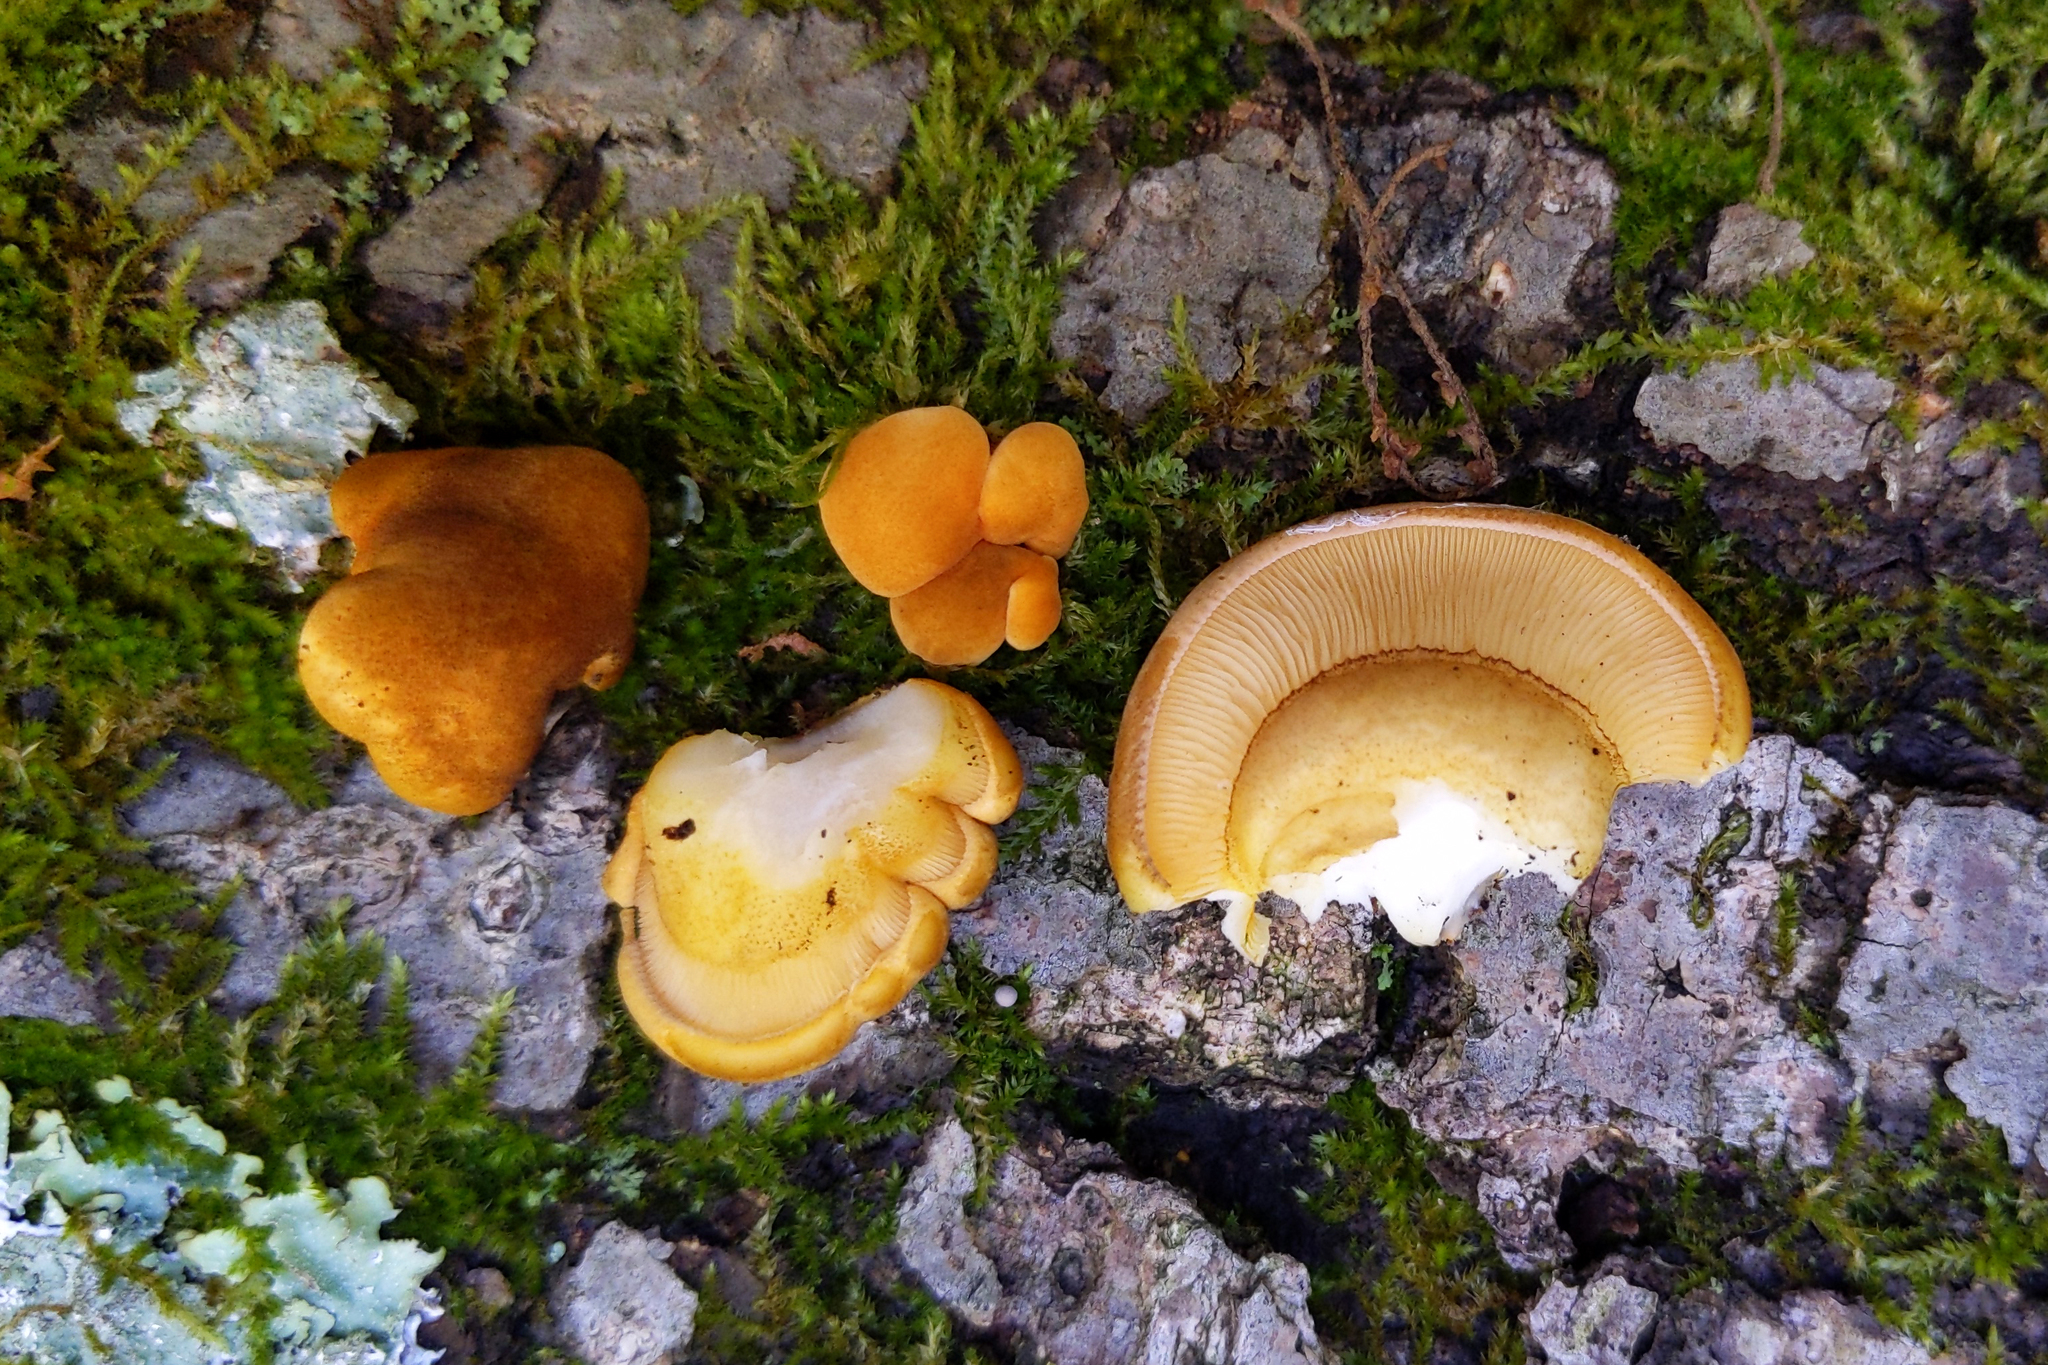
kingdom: Fungi
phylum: Basidiomycota
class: Agaricomycetes
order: Agaricales
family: Sarcomyxaceae
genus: Sarcomyxa
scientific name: Sarcomyxa serotina
